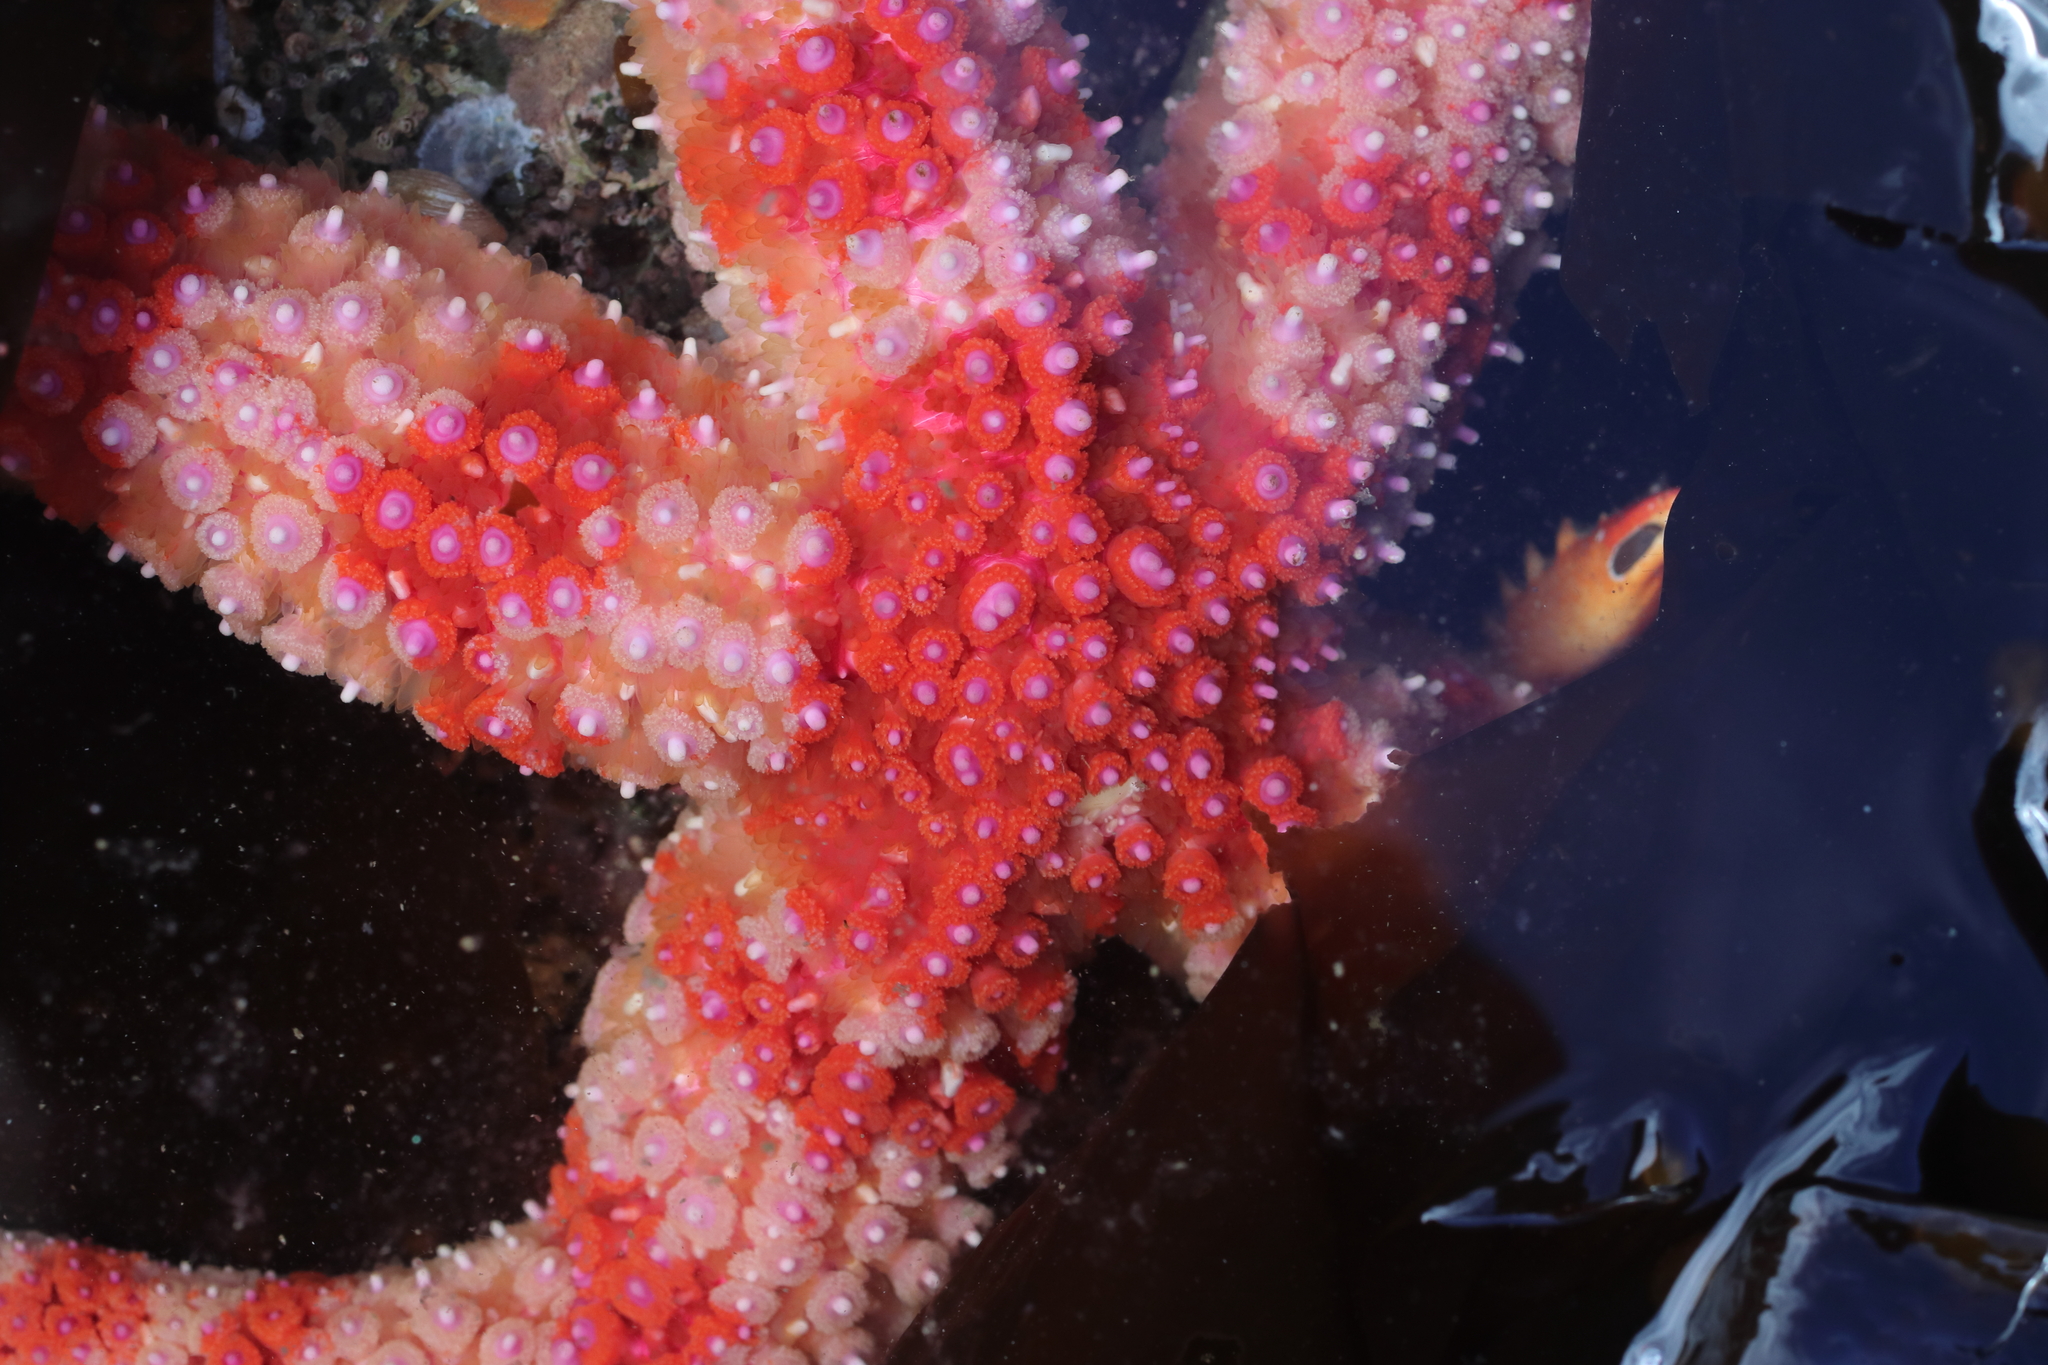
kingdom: Animalia
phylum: Echinodermata
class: Asteroidea
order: Forcipulatida
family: Asteriidae
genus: Orthasterias
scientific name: Orthasterias koehleri
